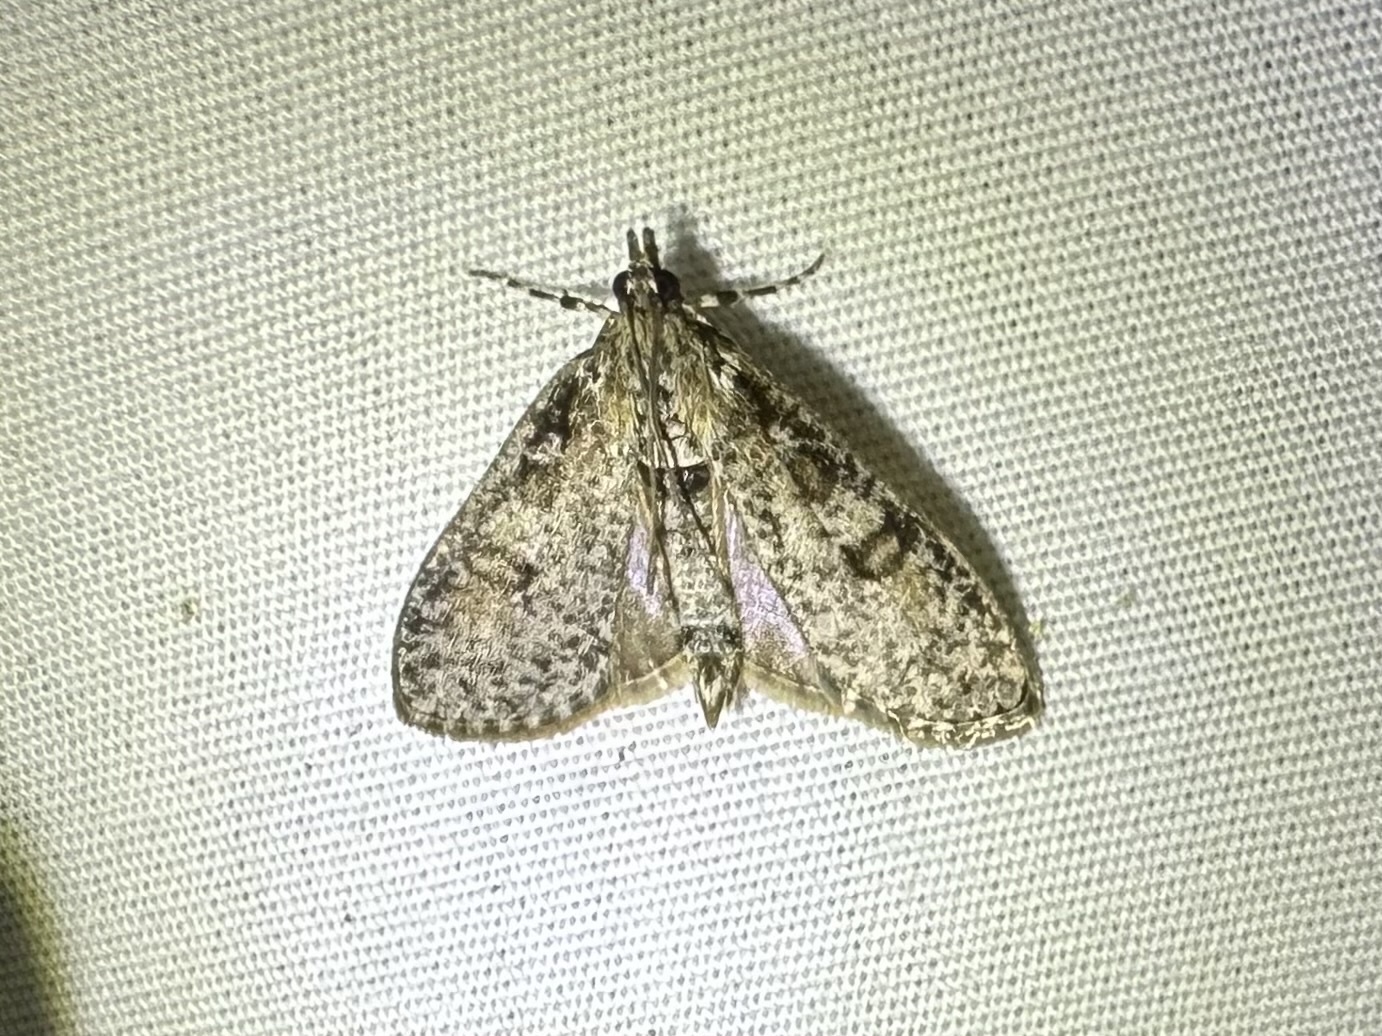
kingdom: Animalia
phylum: Arthropoda
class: Insecta
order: Lepidoptera
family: Crambidae
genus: Palpita
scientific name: Palpita aenescentalis
